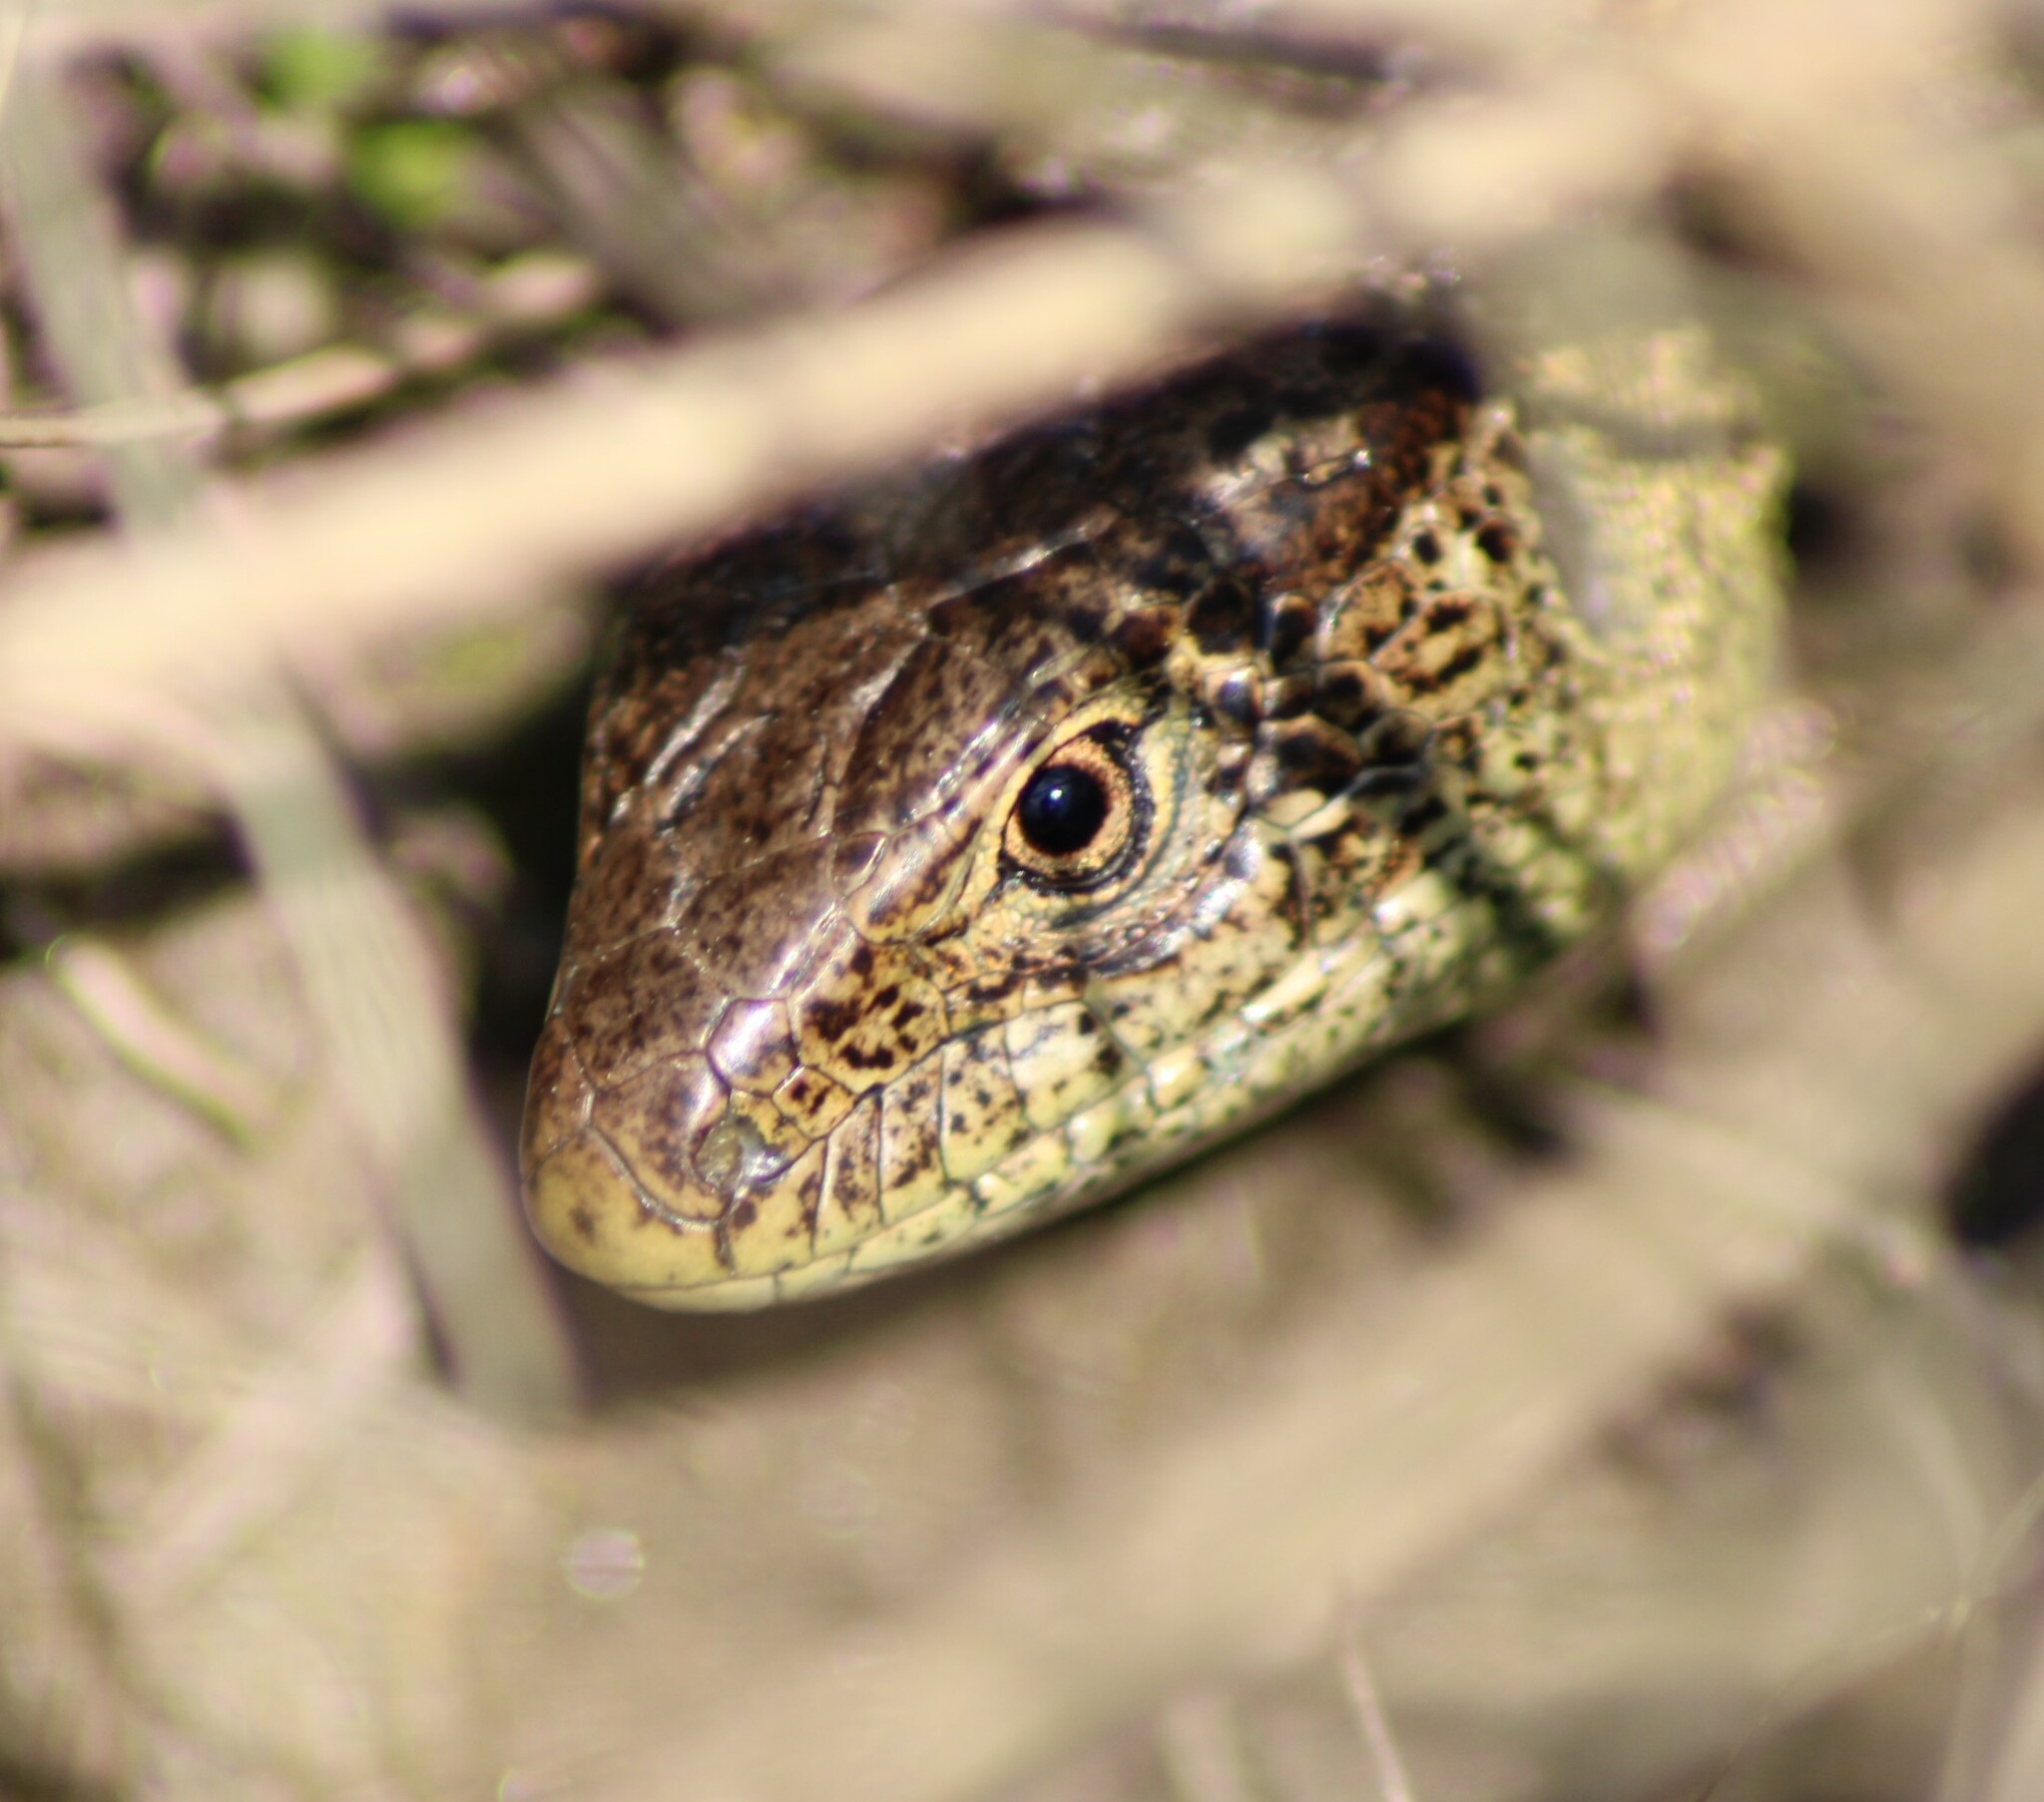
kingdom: Animalia
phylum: Chordata
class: Squamata
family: Lacertidae
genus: Lacerta
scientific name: Lacerta agilis
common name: Sand lizard
